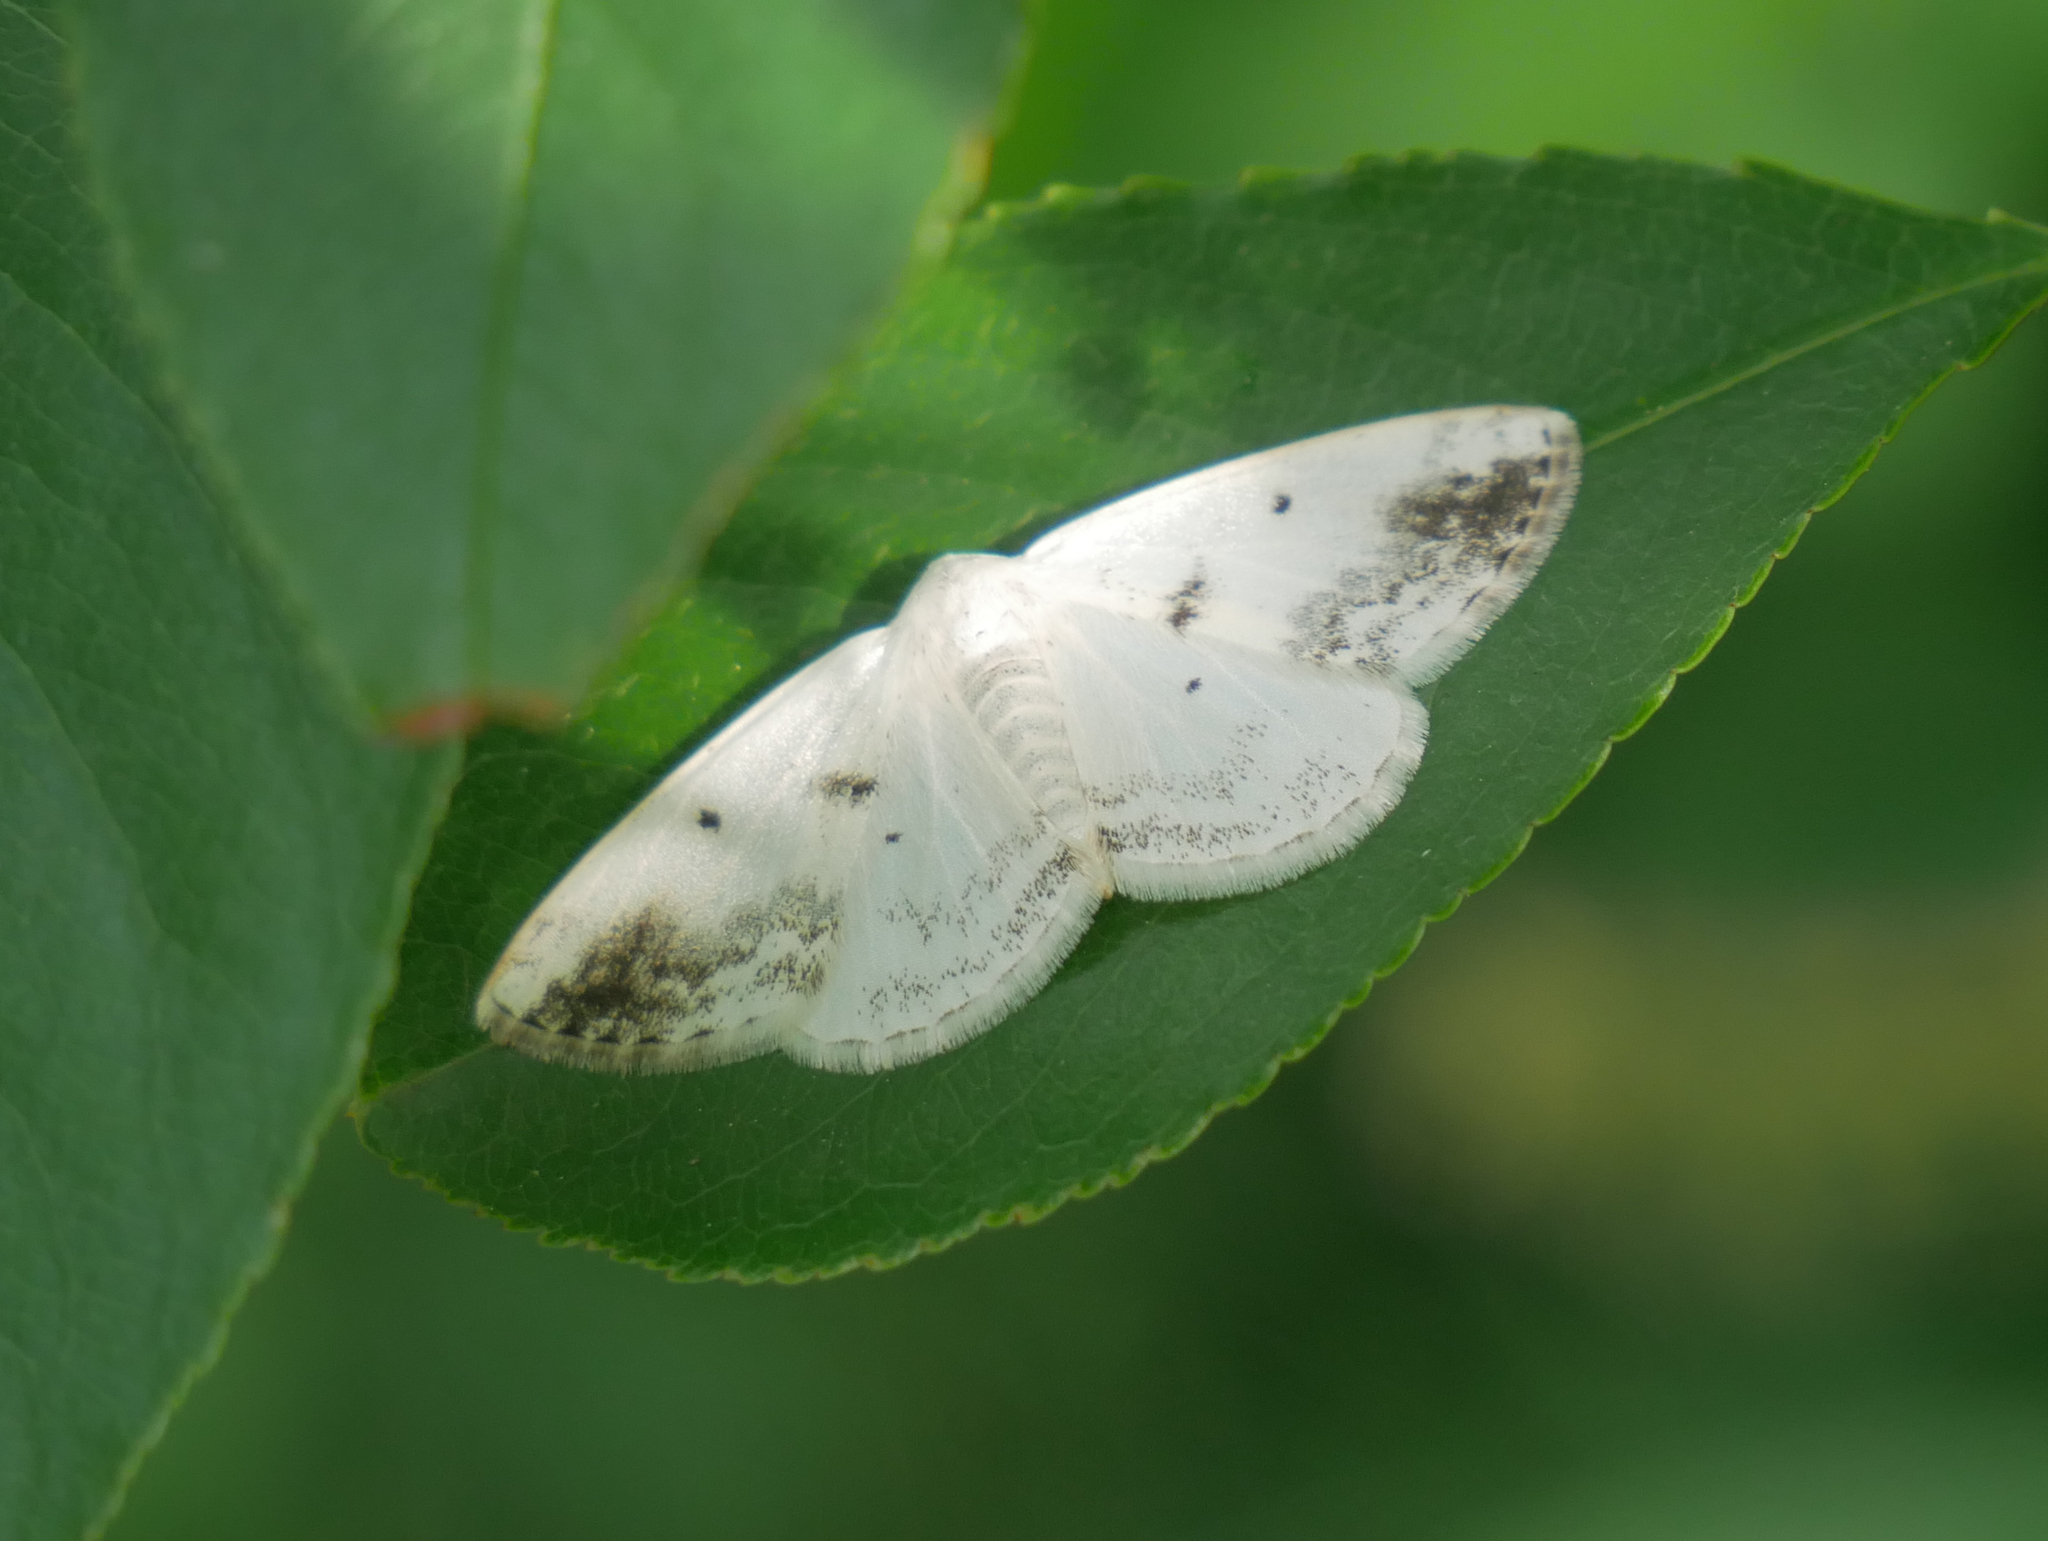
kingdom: Animalia
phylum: Arthropoda
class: Insecta
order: Lepidoptera
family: Geometridae
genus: Lomographa
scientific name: Lomographa temerata
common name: Clouded silver
